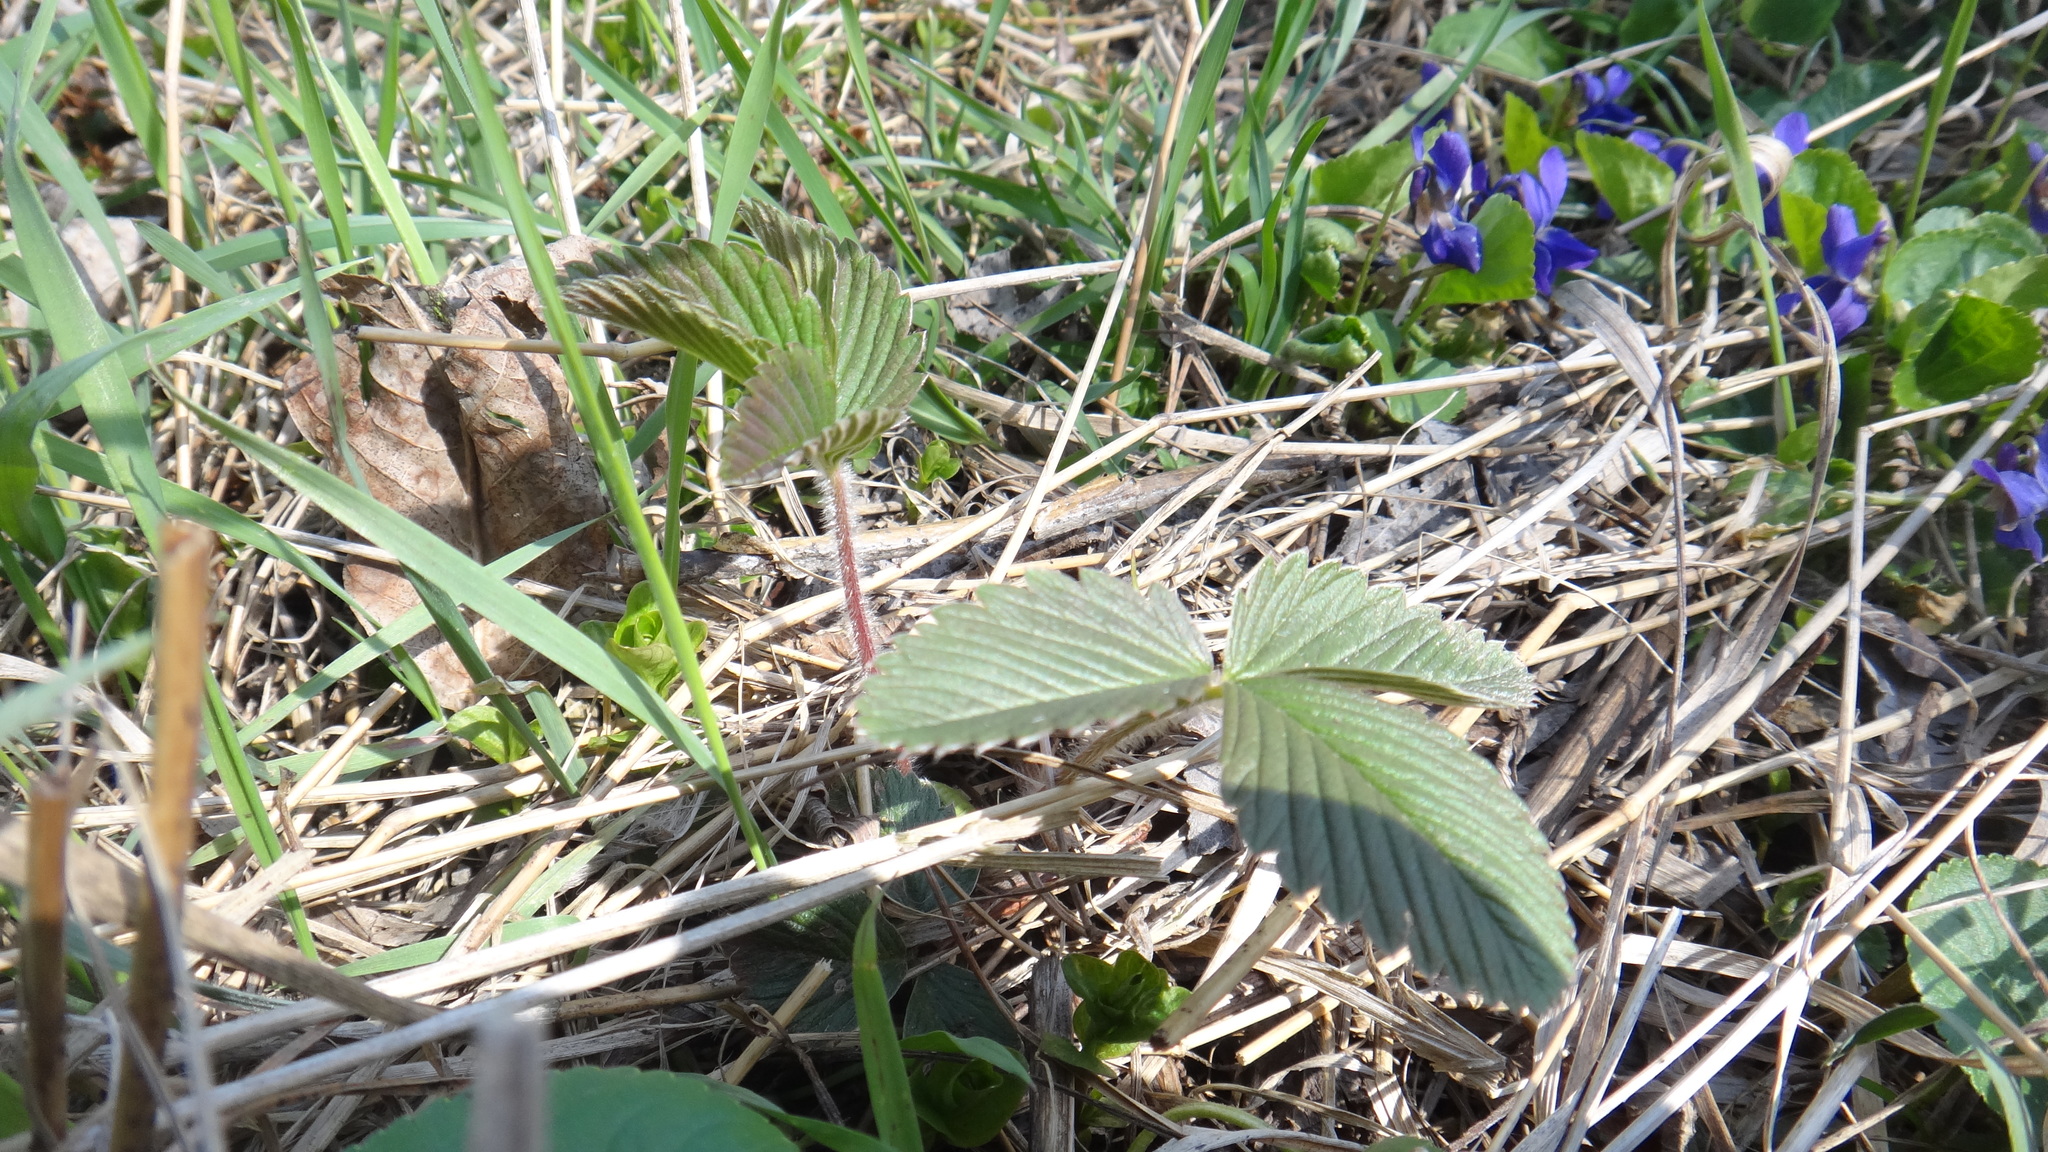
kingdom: Plantae
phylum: Tracheophyta
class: Magnoliopsida
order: Rosales
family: Rosaceae
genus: Fragaria
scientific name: Fragaria viridis
